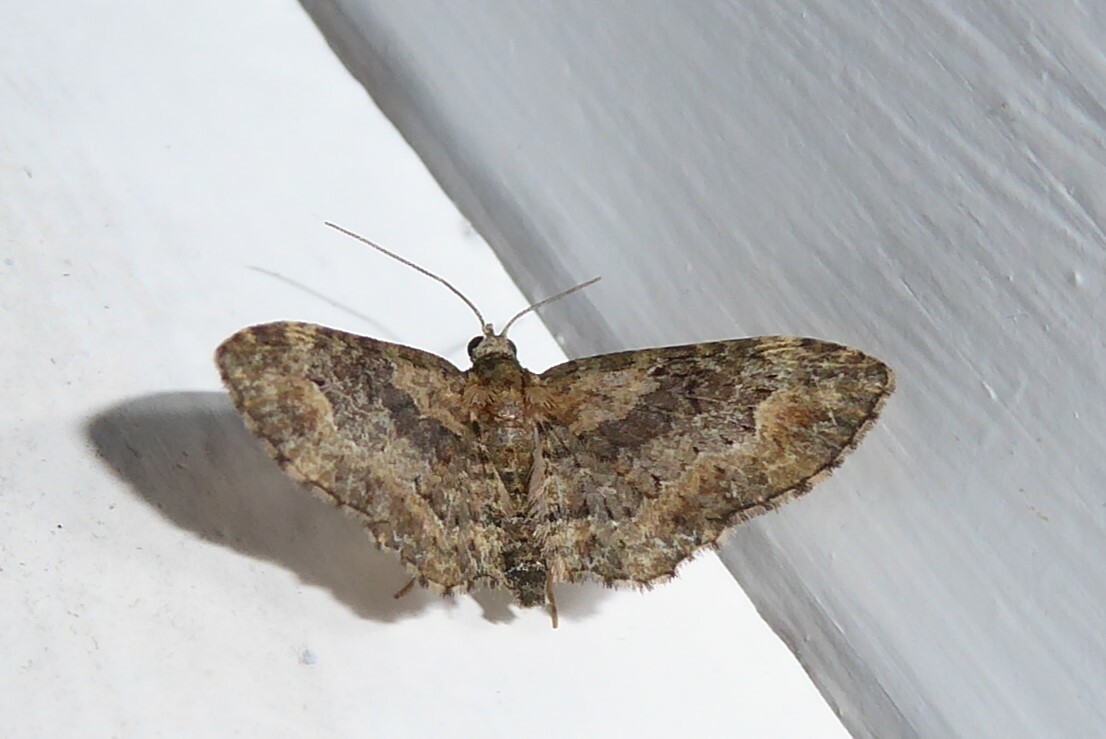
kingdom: Animalia
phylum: Arthropoda
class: Insecta
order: Lepidoptera
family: Geometridae
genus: Pasiphilodes
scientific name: Pasiphilodes testulata
